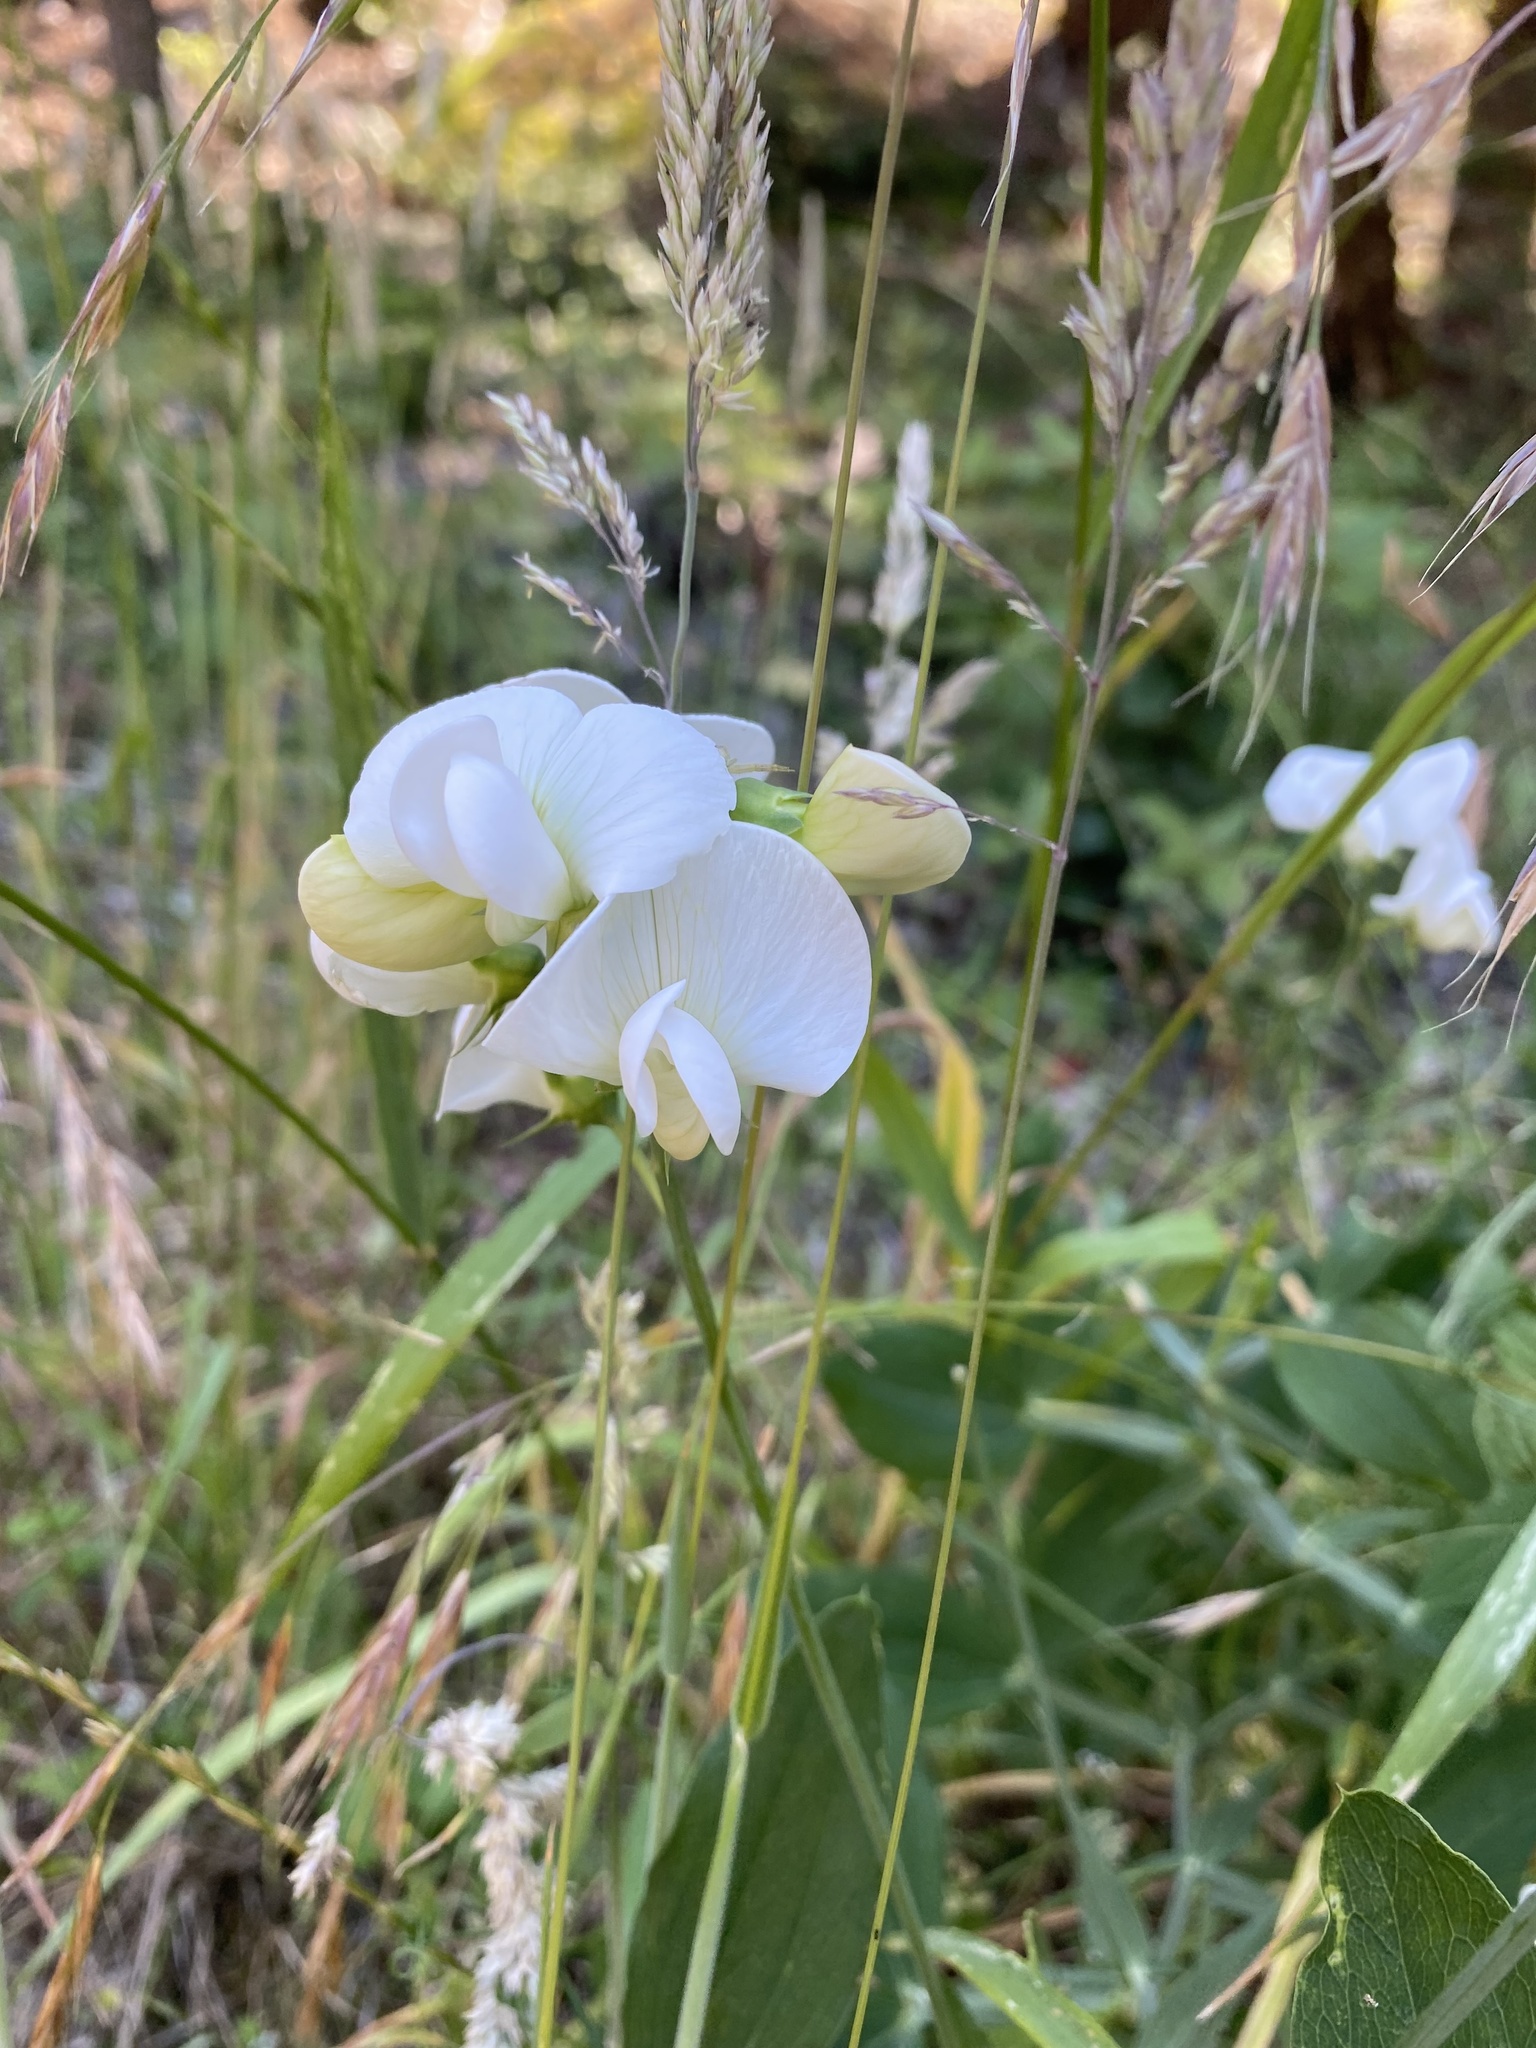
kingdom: Plantae
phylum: Tracheophyta
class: Magnoliopsida
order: Fabales
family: Fabaceae
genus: Lathyrus
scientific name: Lathyrus latifolius
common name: Perennial pea
